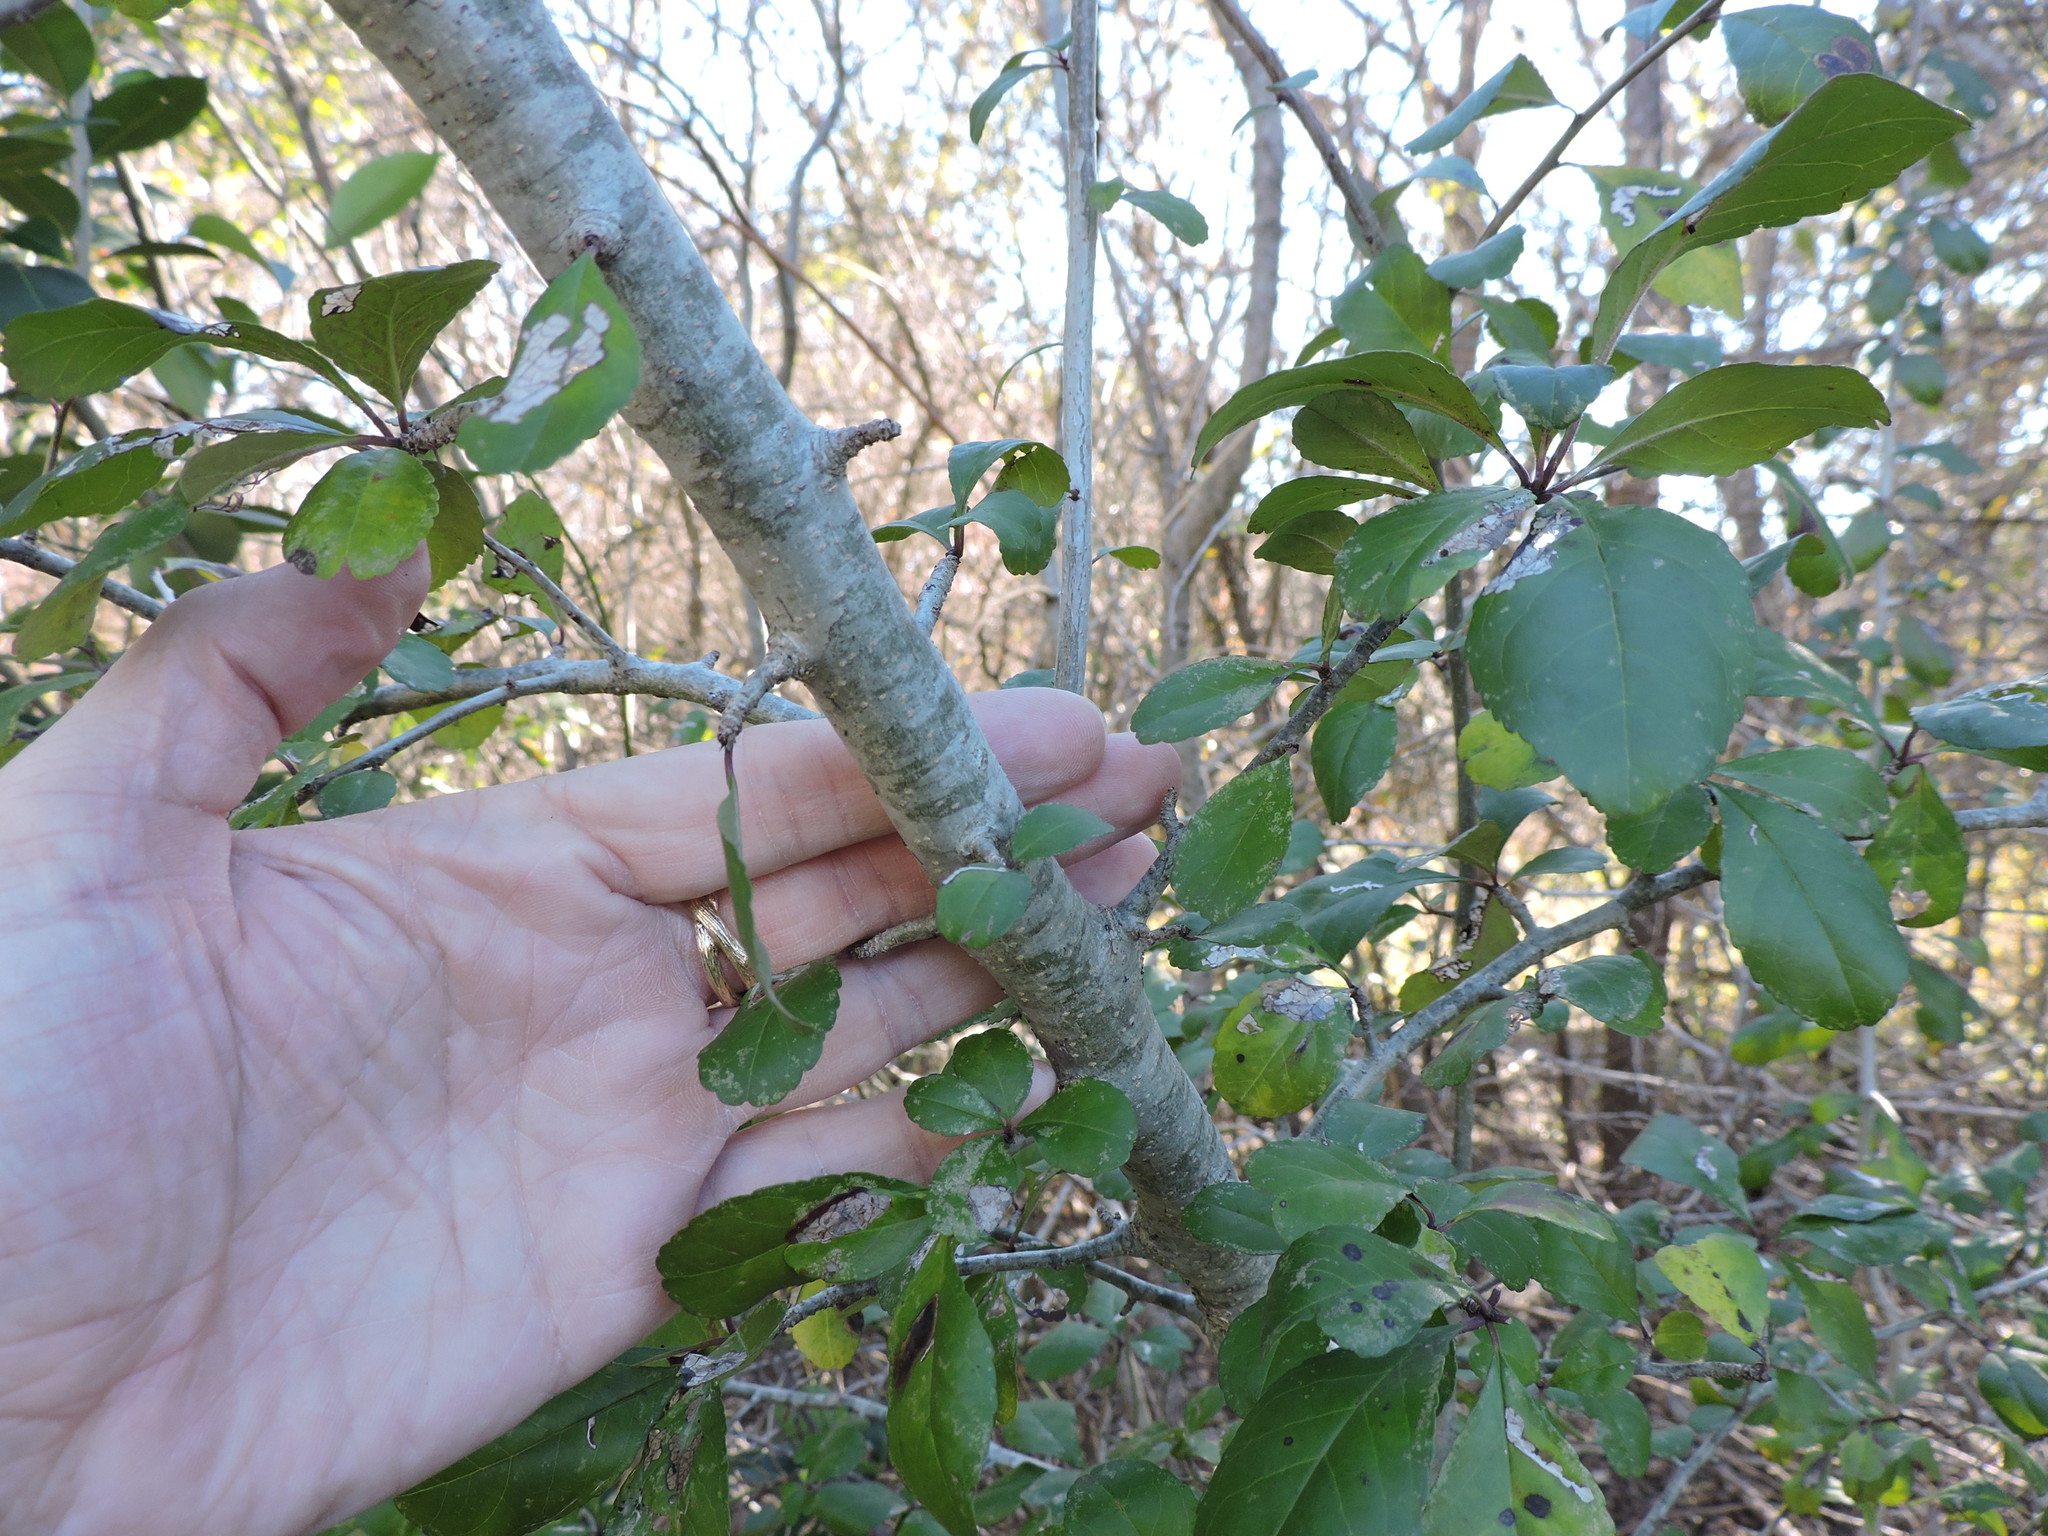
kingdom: Plantae
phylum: Tracheophyta
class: Magnoliopsida
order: Aquifoliales
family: Aquifoliaceae
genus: Ilex
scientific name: Ilex decidua
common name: Possum-haw
